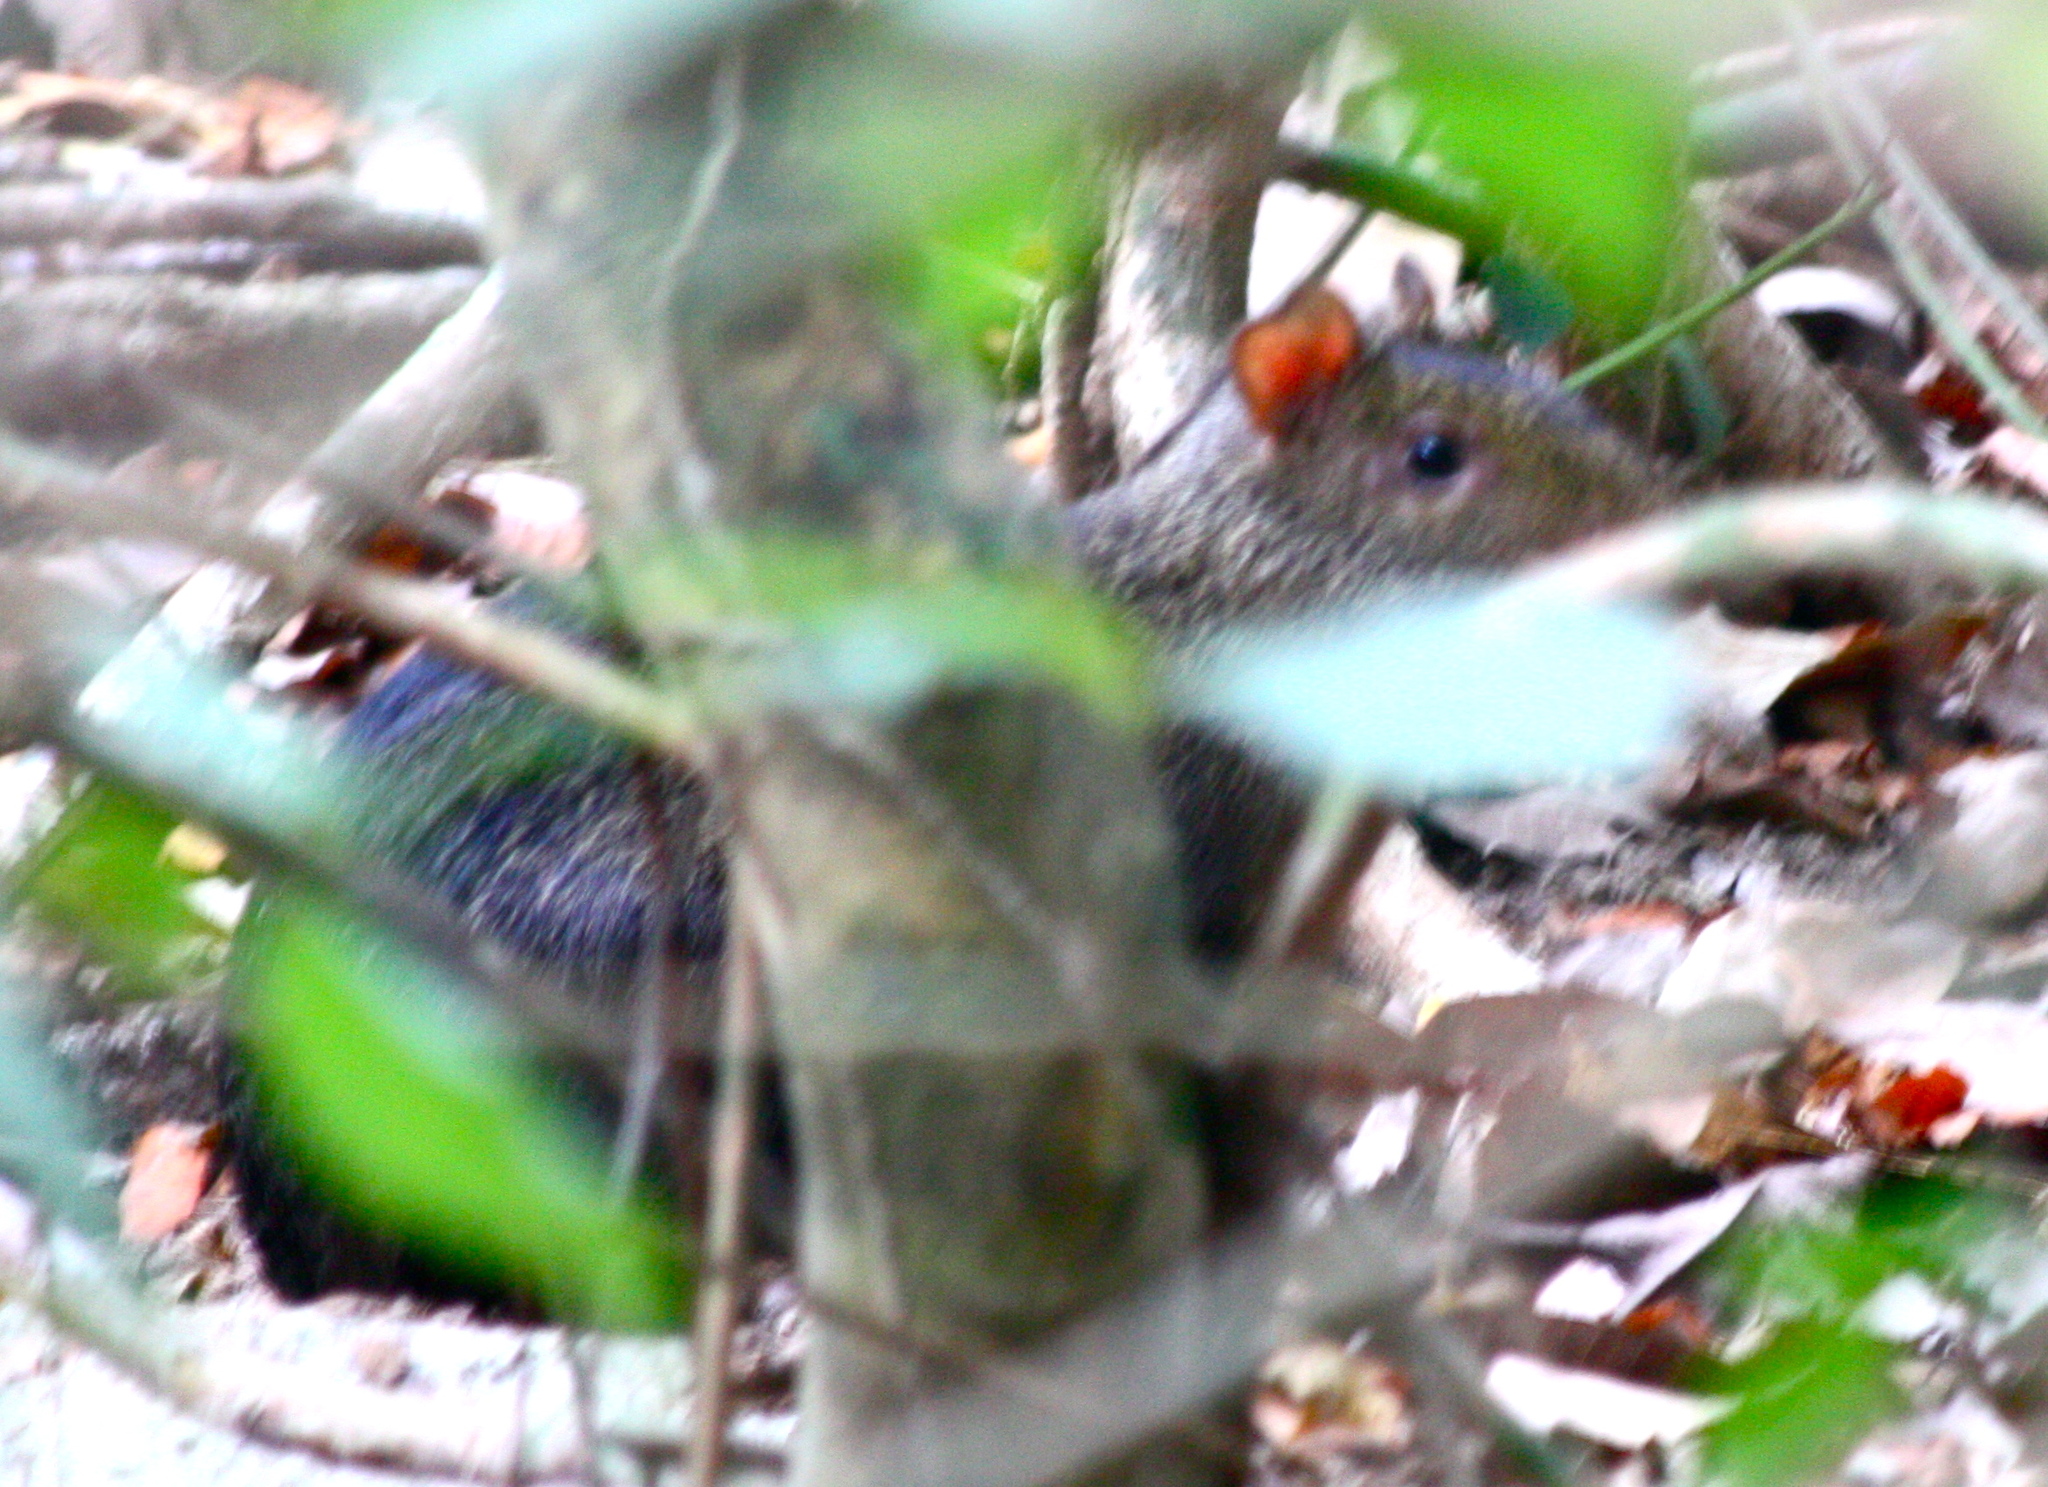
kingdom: Animalia
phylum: Chordata
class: Mammalia
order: Rodentia
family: Dasyproctidae
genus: Dasyprocta
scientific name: Dasyprocta fuliginosa
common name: Black agouti
